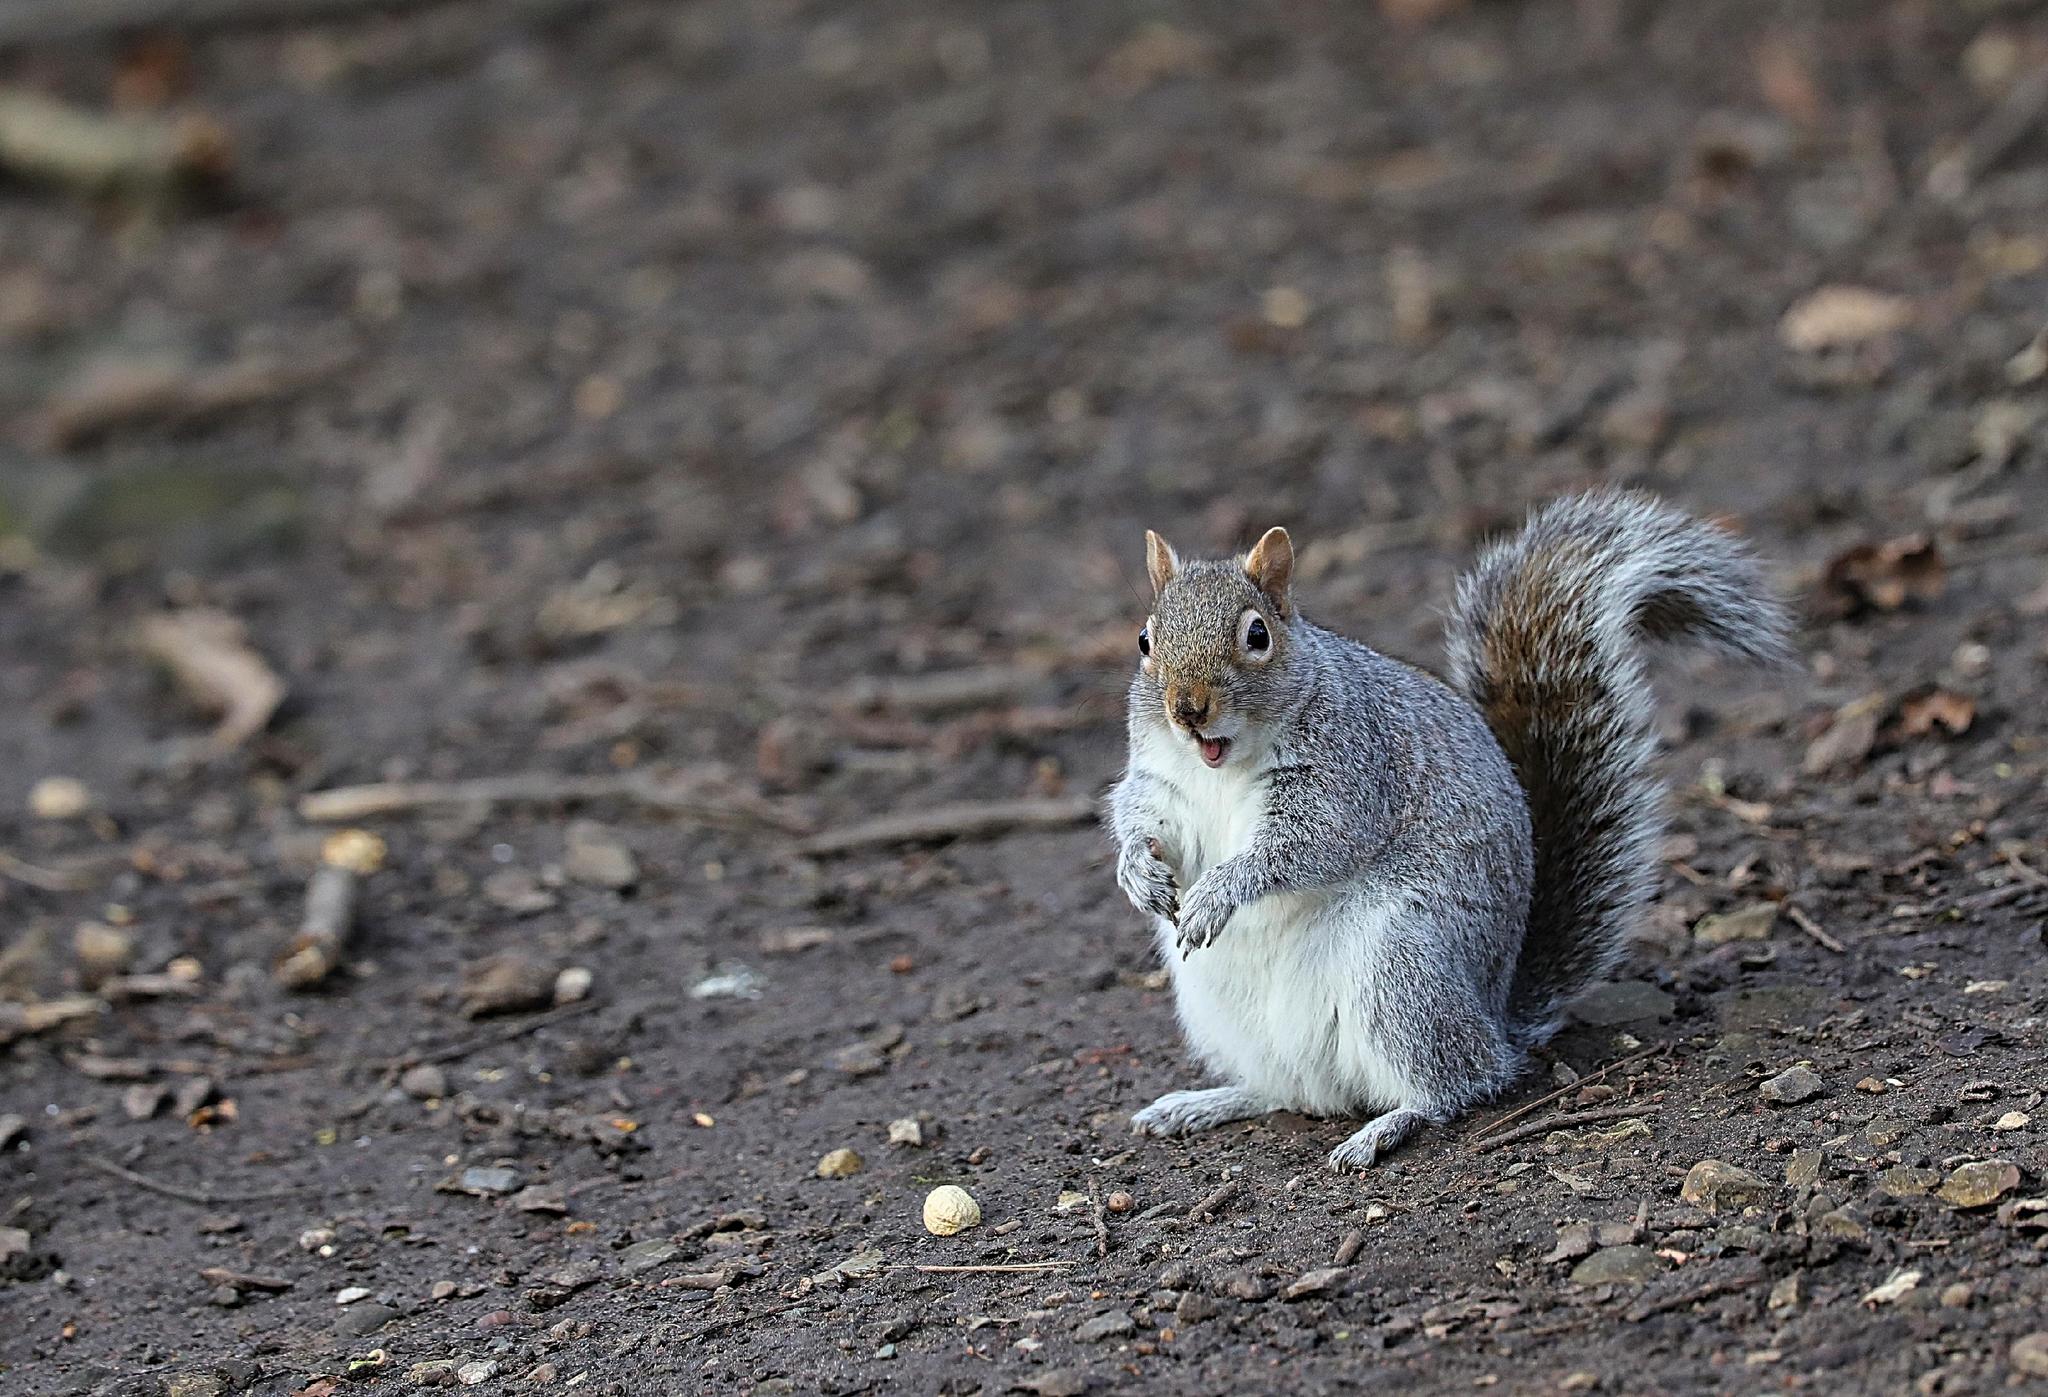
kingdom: Animalia
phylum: Chordata
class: Mammalia
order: Rodentia
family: Sciuridae
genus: Sciurus
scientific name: Sciurus carolinensis
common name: Eastern gray squirrel
